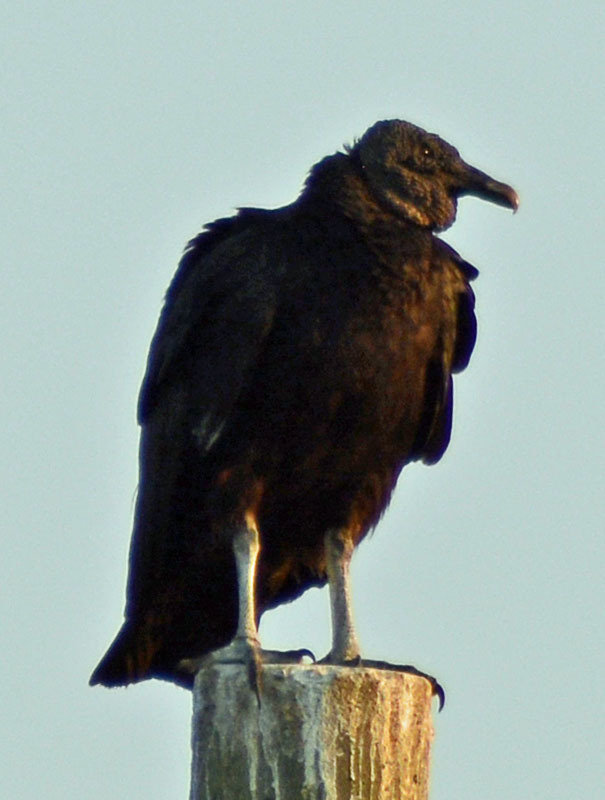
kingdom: Animalia
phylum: Chordata
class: Aves
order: Accipitriformes
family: Cathartidae
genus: Coragyps
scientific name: Coragyps atratus
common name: Black vulture
